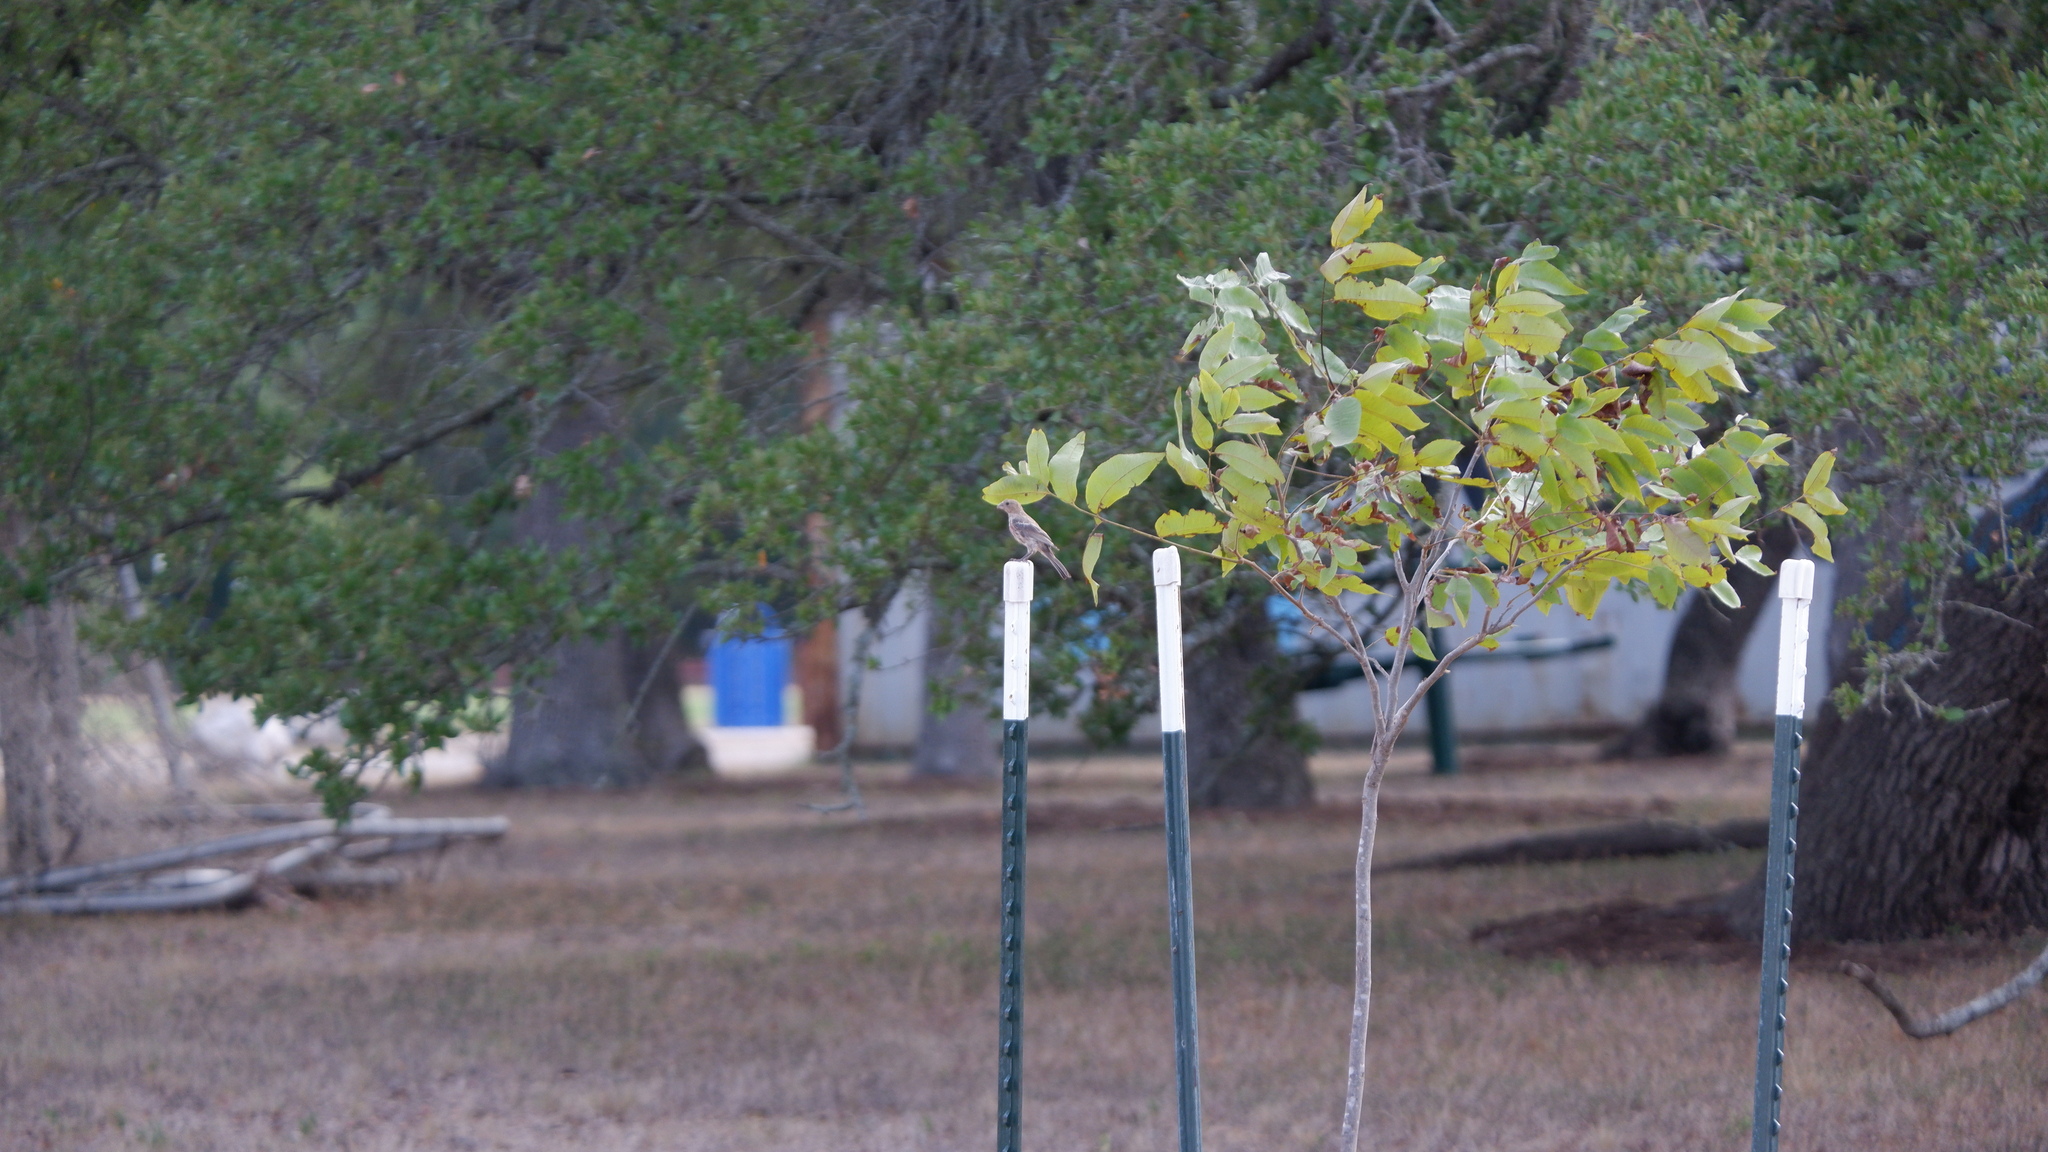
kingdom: Animalia
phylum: Chordata
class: Aves
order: Passeriformes
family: Fringillidae
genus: Haemorhous
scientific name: Haemorhous mexicanus
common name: House finch
